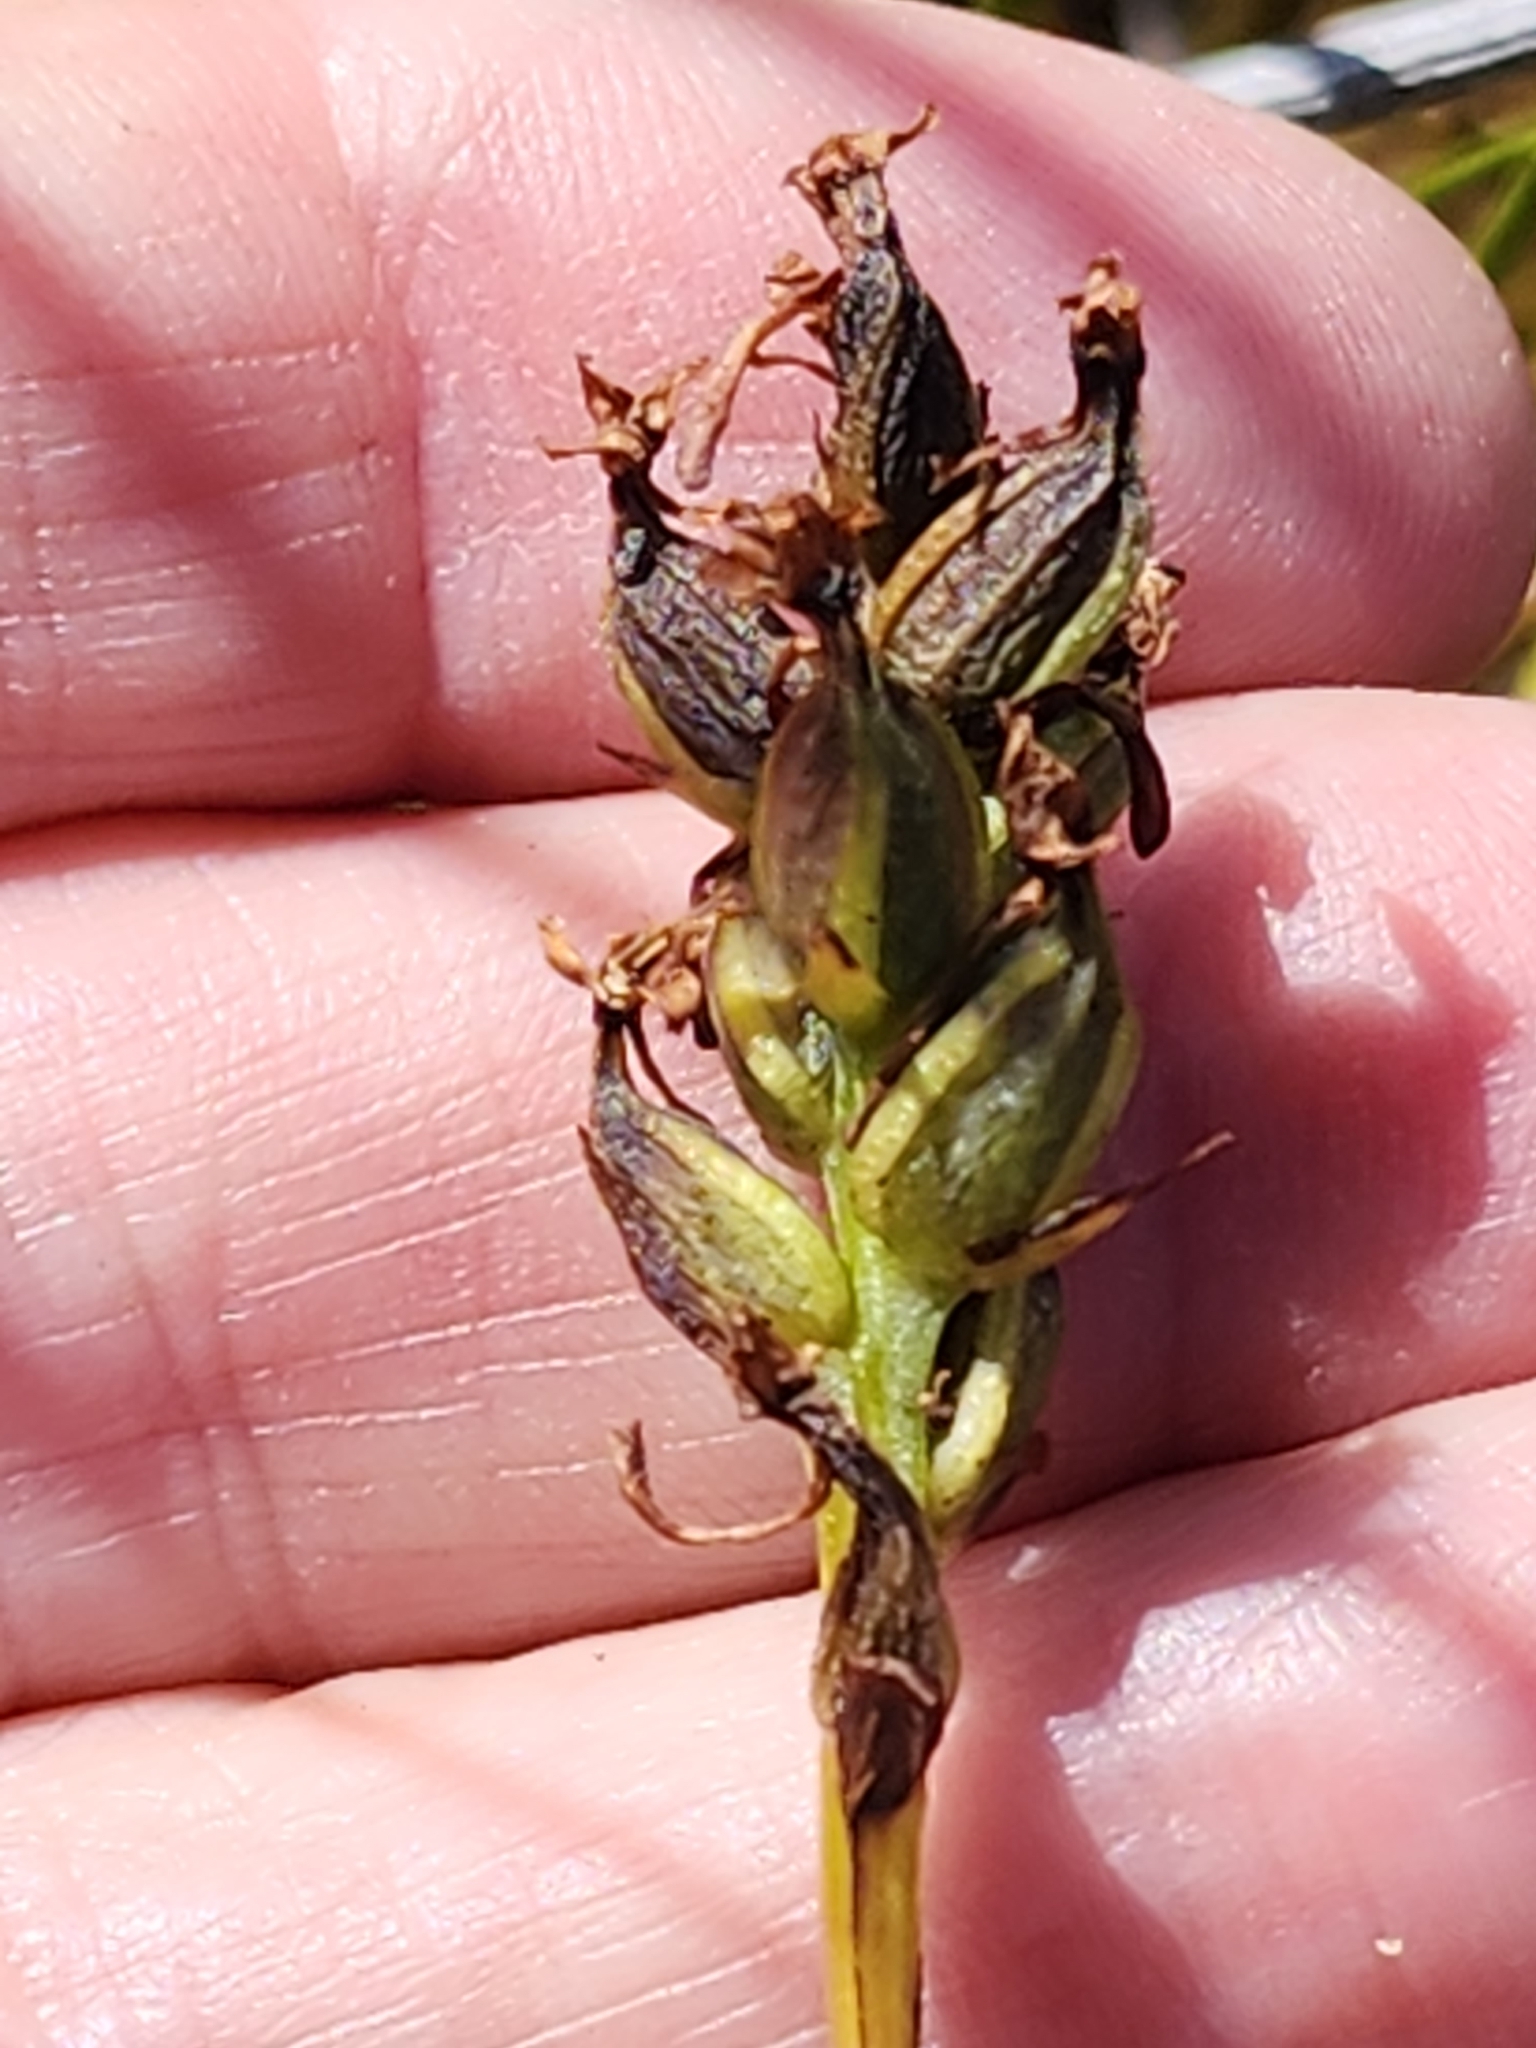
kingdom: Plantae
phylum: Tracheophyta
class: Liliopsida
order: Asparagales
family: Orchidaceae
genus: Platanthera
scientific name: Platanthera clavellata
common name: Club-spur orchid
